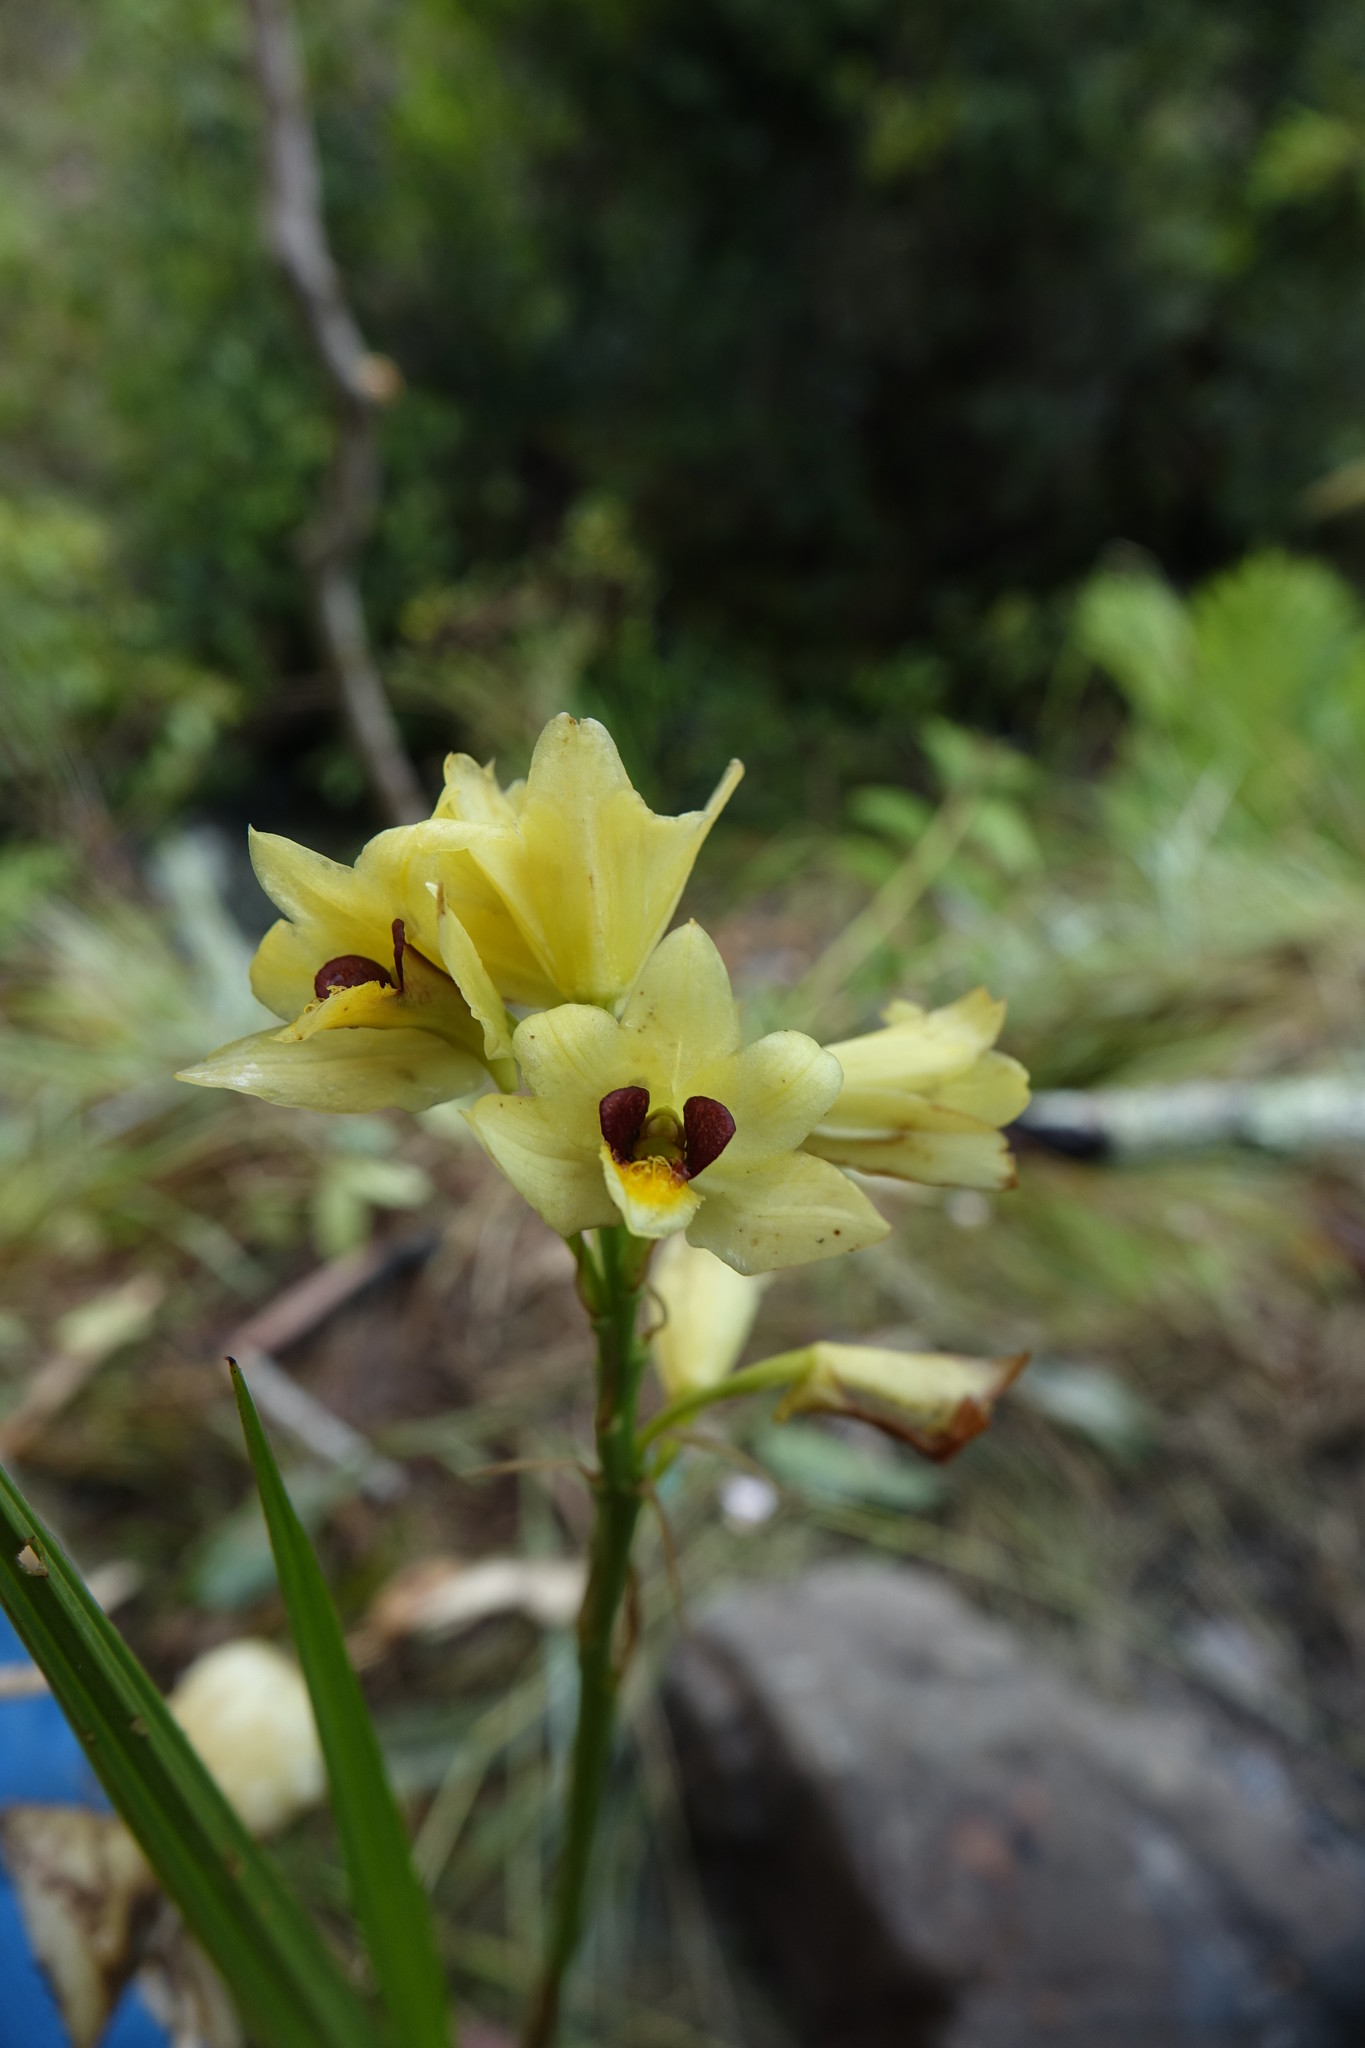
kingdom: Plantae
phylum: Tracheophyta
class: Liliopsida
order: Asparagales
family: Orchidaceae
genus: Eulophia
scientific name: Eulophia rutenbergiana
